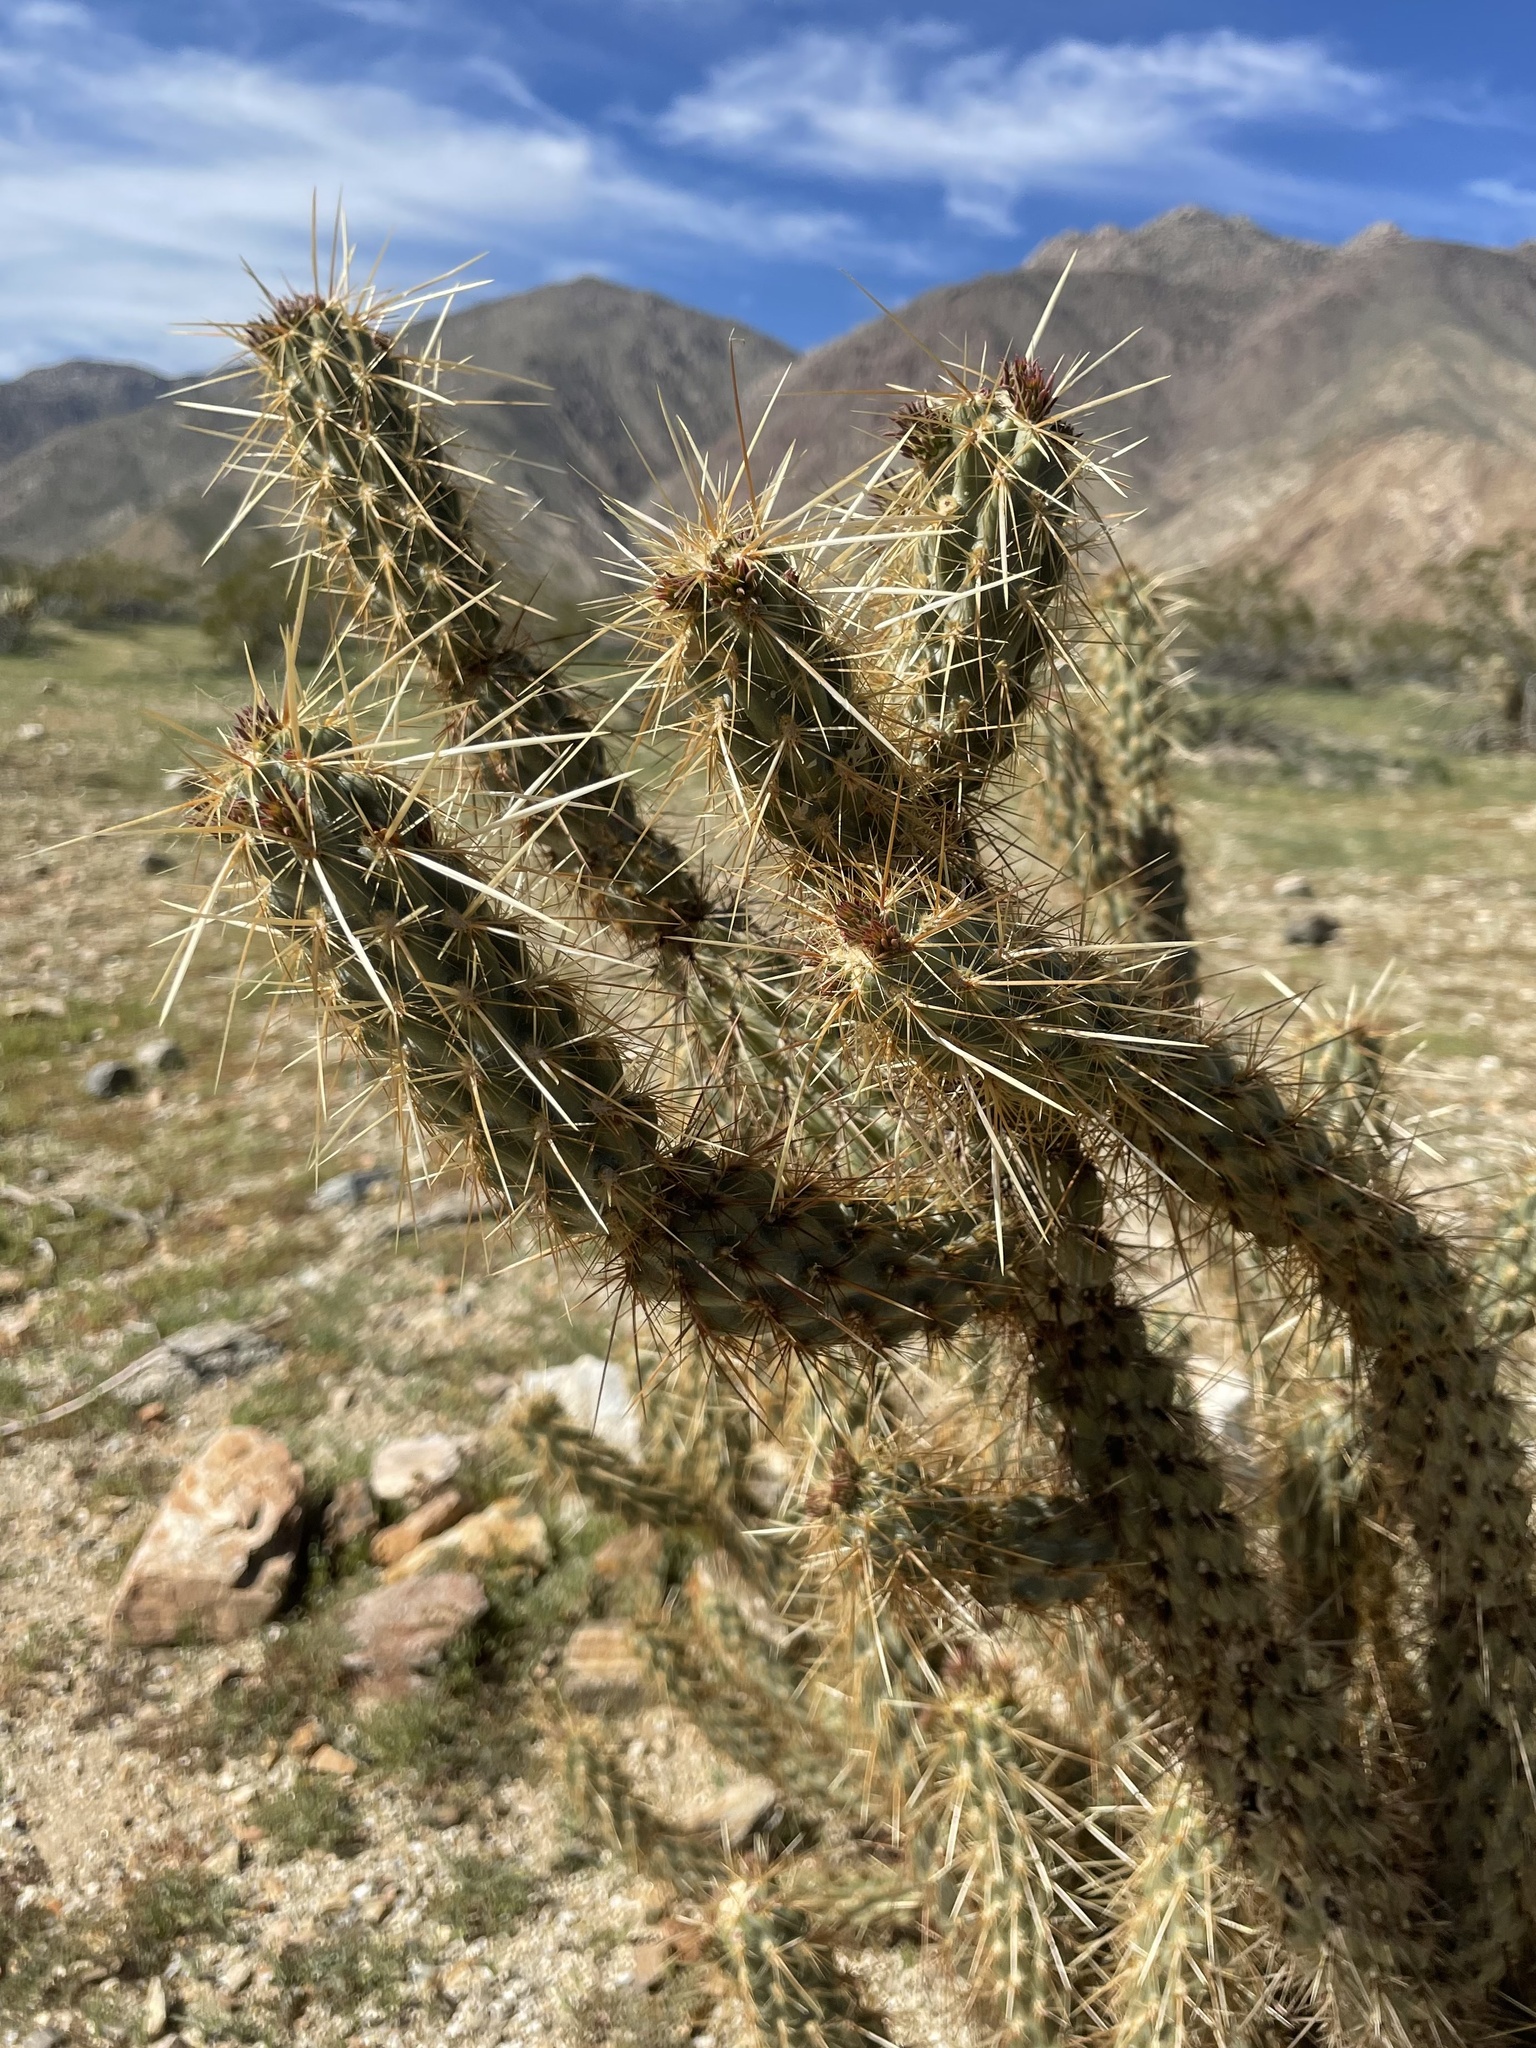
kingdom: Plantae
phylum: Tracheophyta
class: Magnoliopsida
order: Caryophyllales
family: Cactaceae
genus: Cylindropuntia
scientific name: Cylindropuntia ganderi
